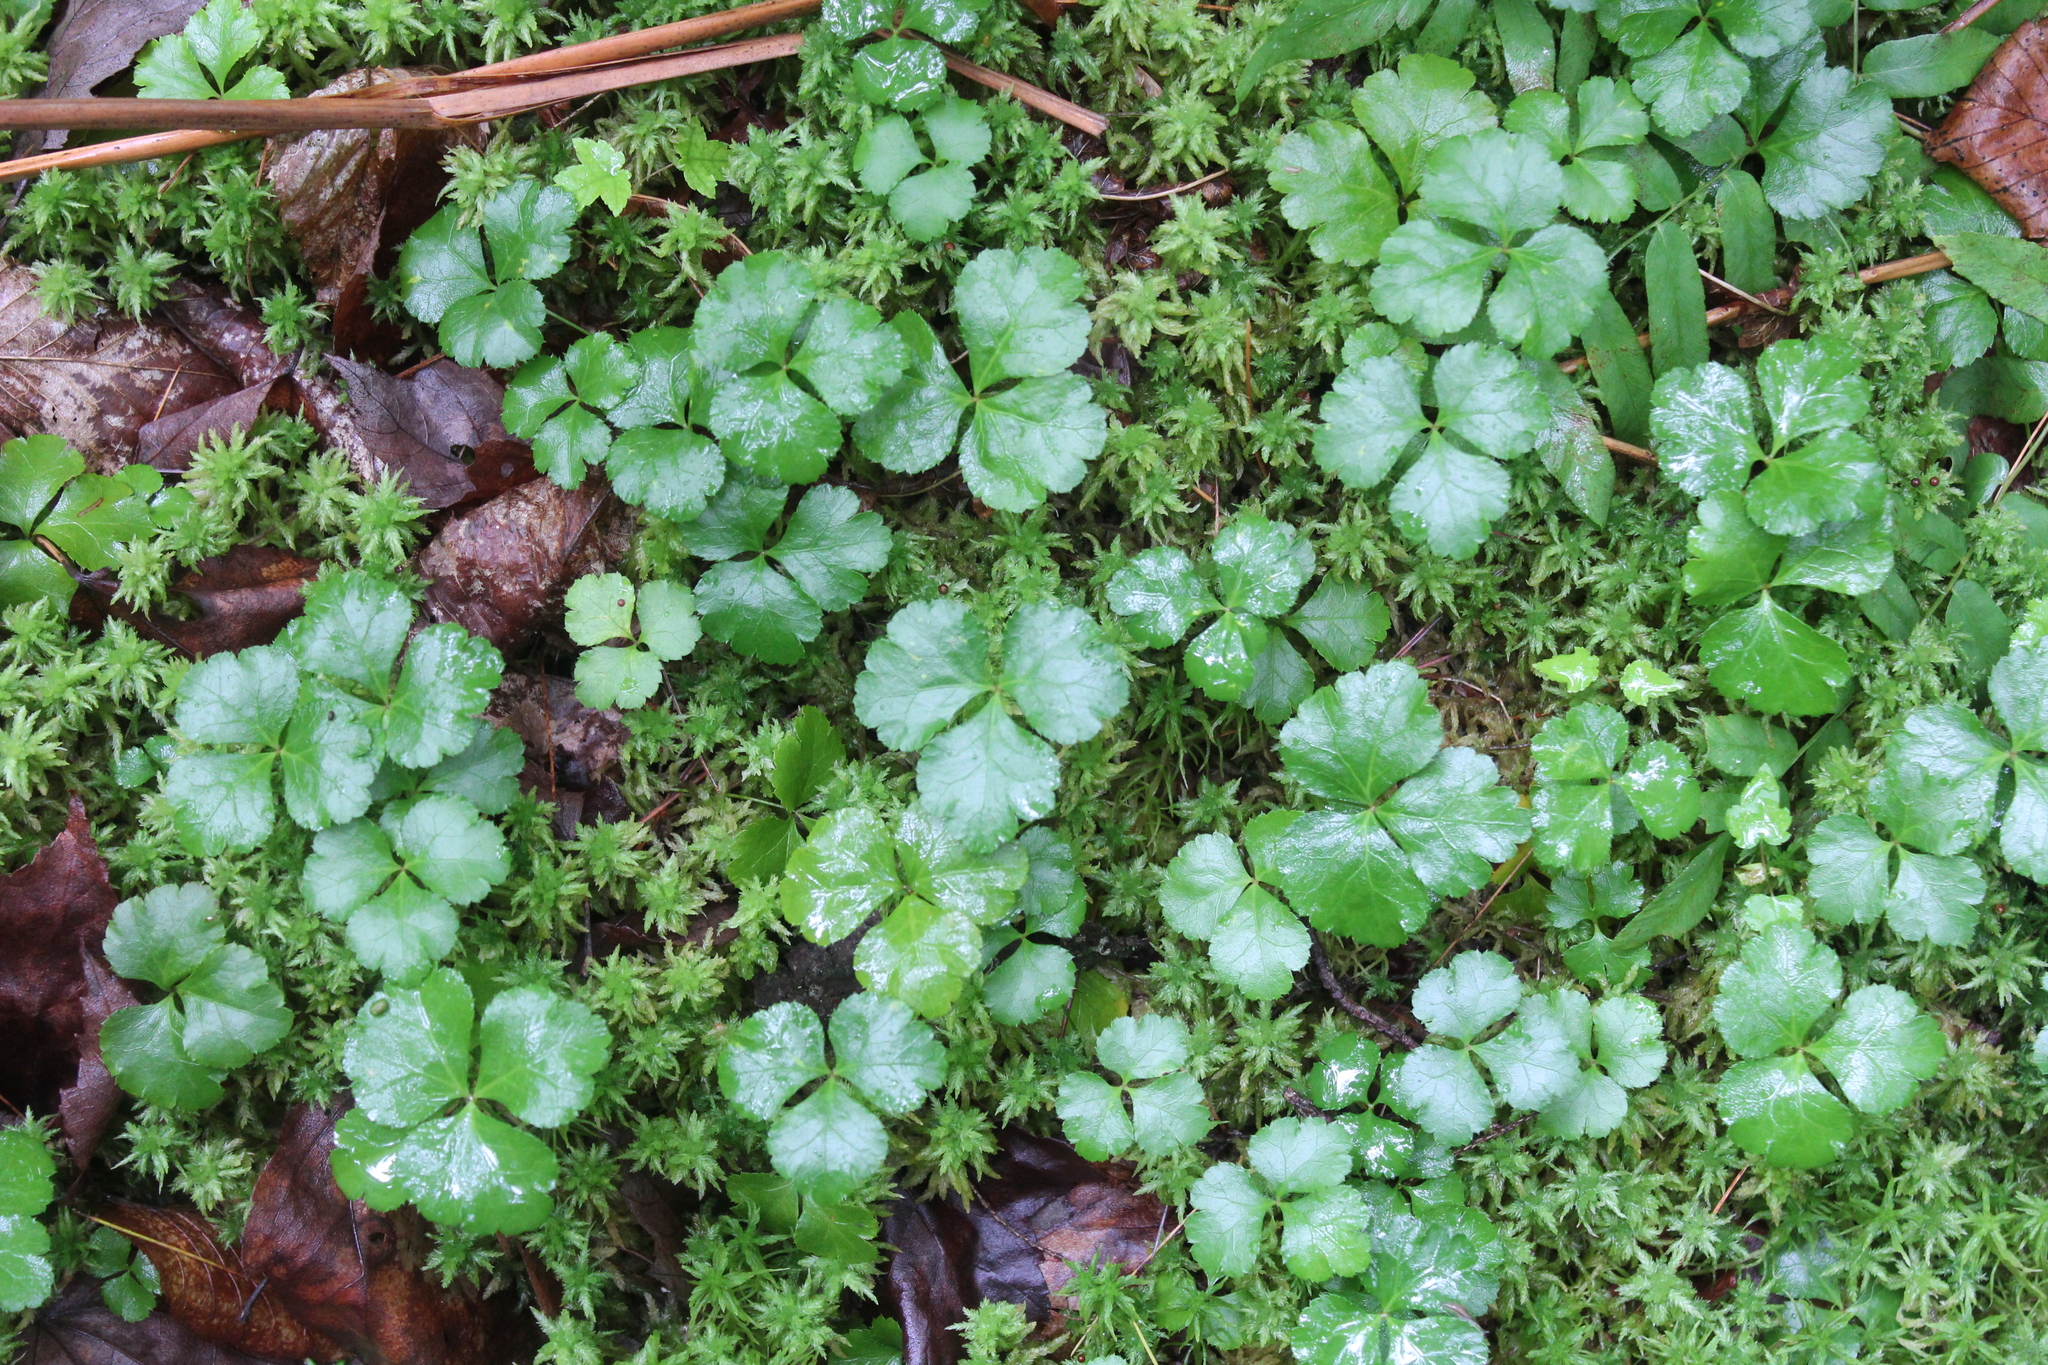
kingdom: Plantae
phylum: Tracheophyta
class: Magnoliopsida
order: Ranunculales
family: Ranunculaceae
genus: Coptis
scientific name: Coptis trifolia
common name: Canker-root
